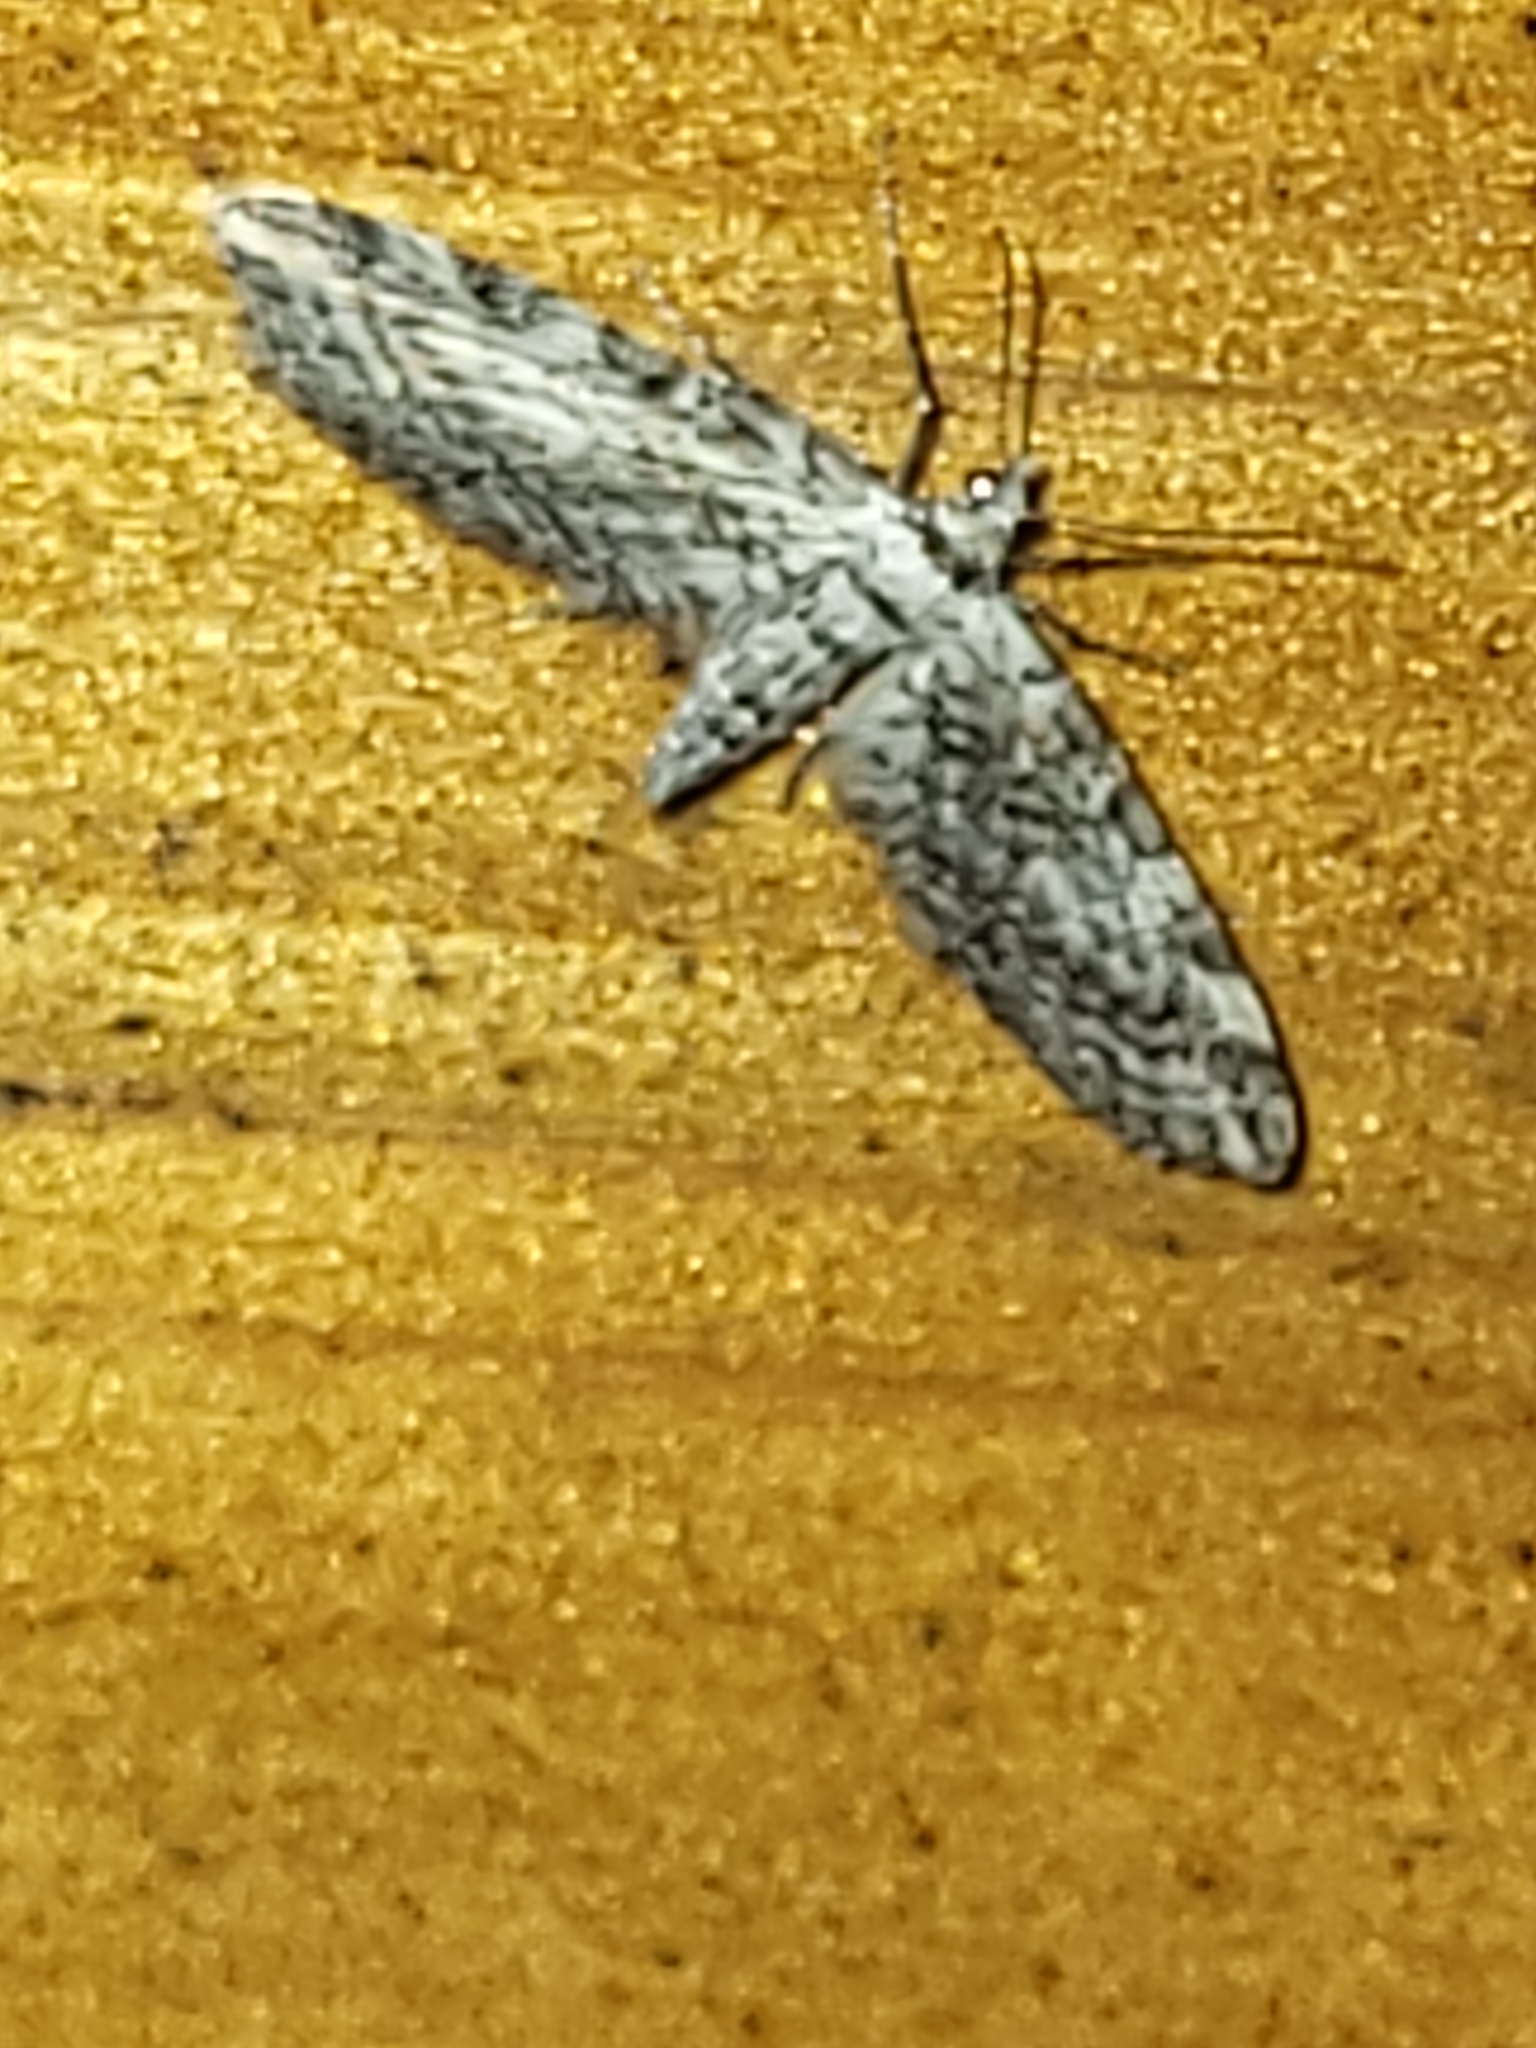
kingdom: Animalia
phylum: Arthropoda
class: Insecta
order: Lepidoptera
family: Geometridae
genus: Eupithecia
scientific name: Eupithecia graphiticata
